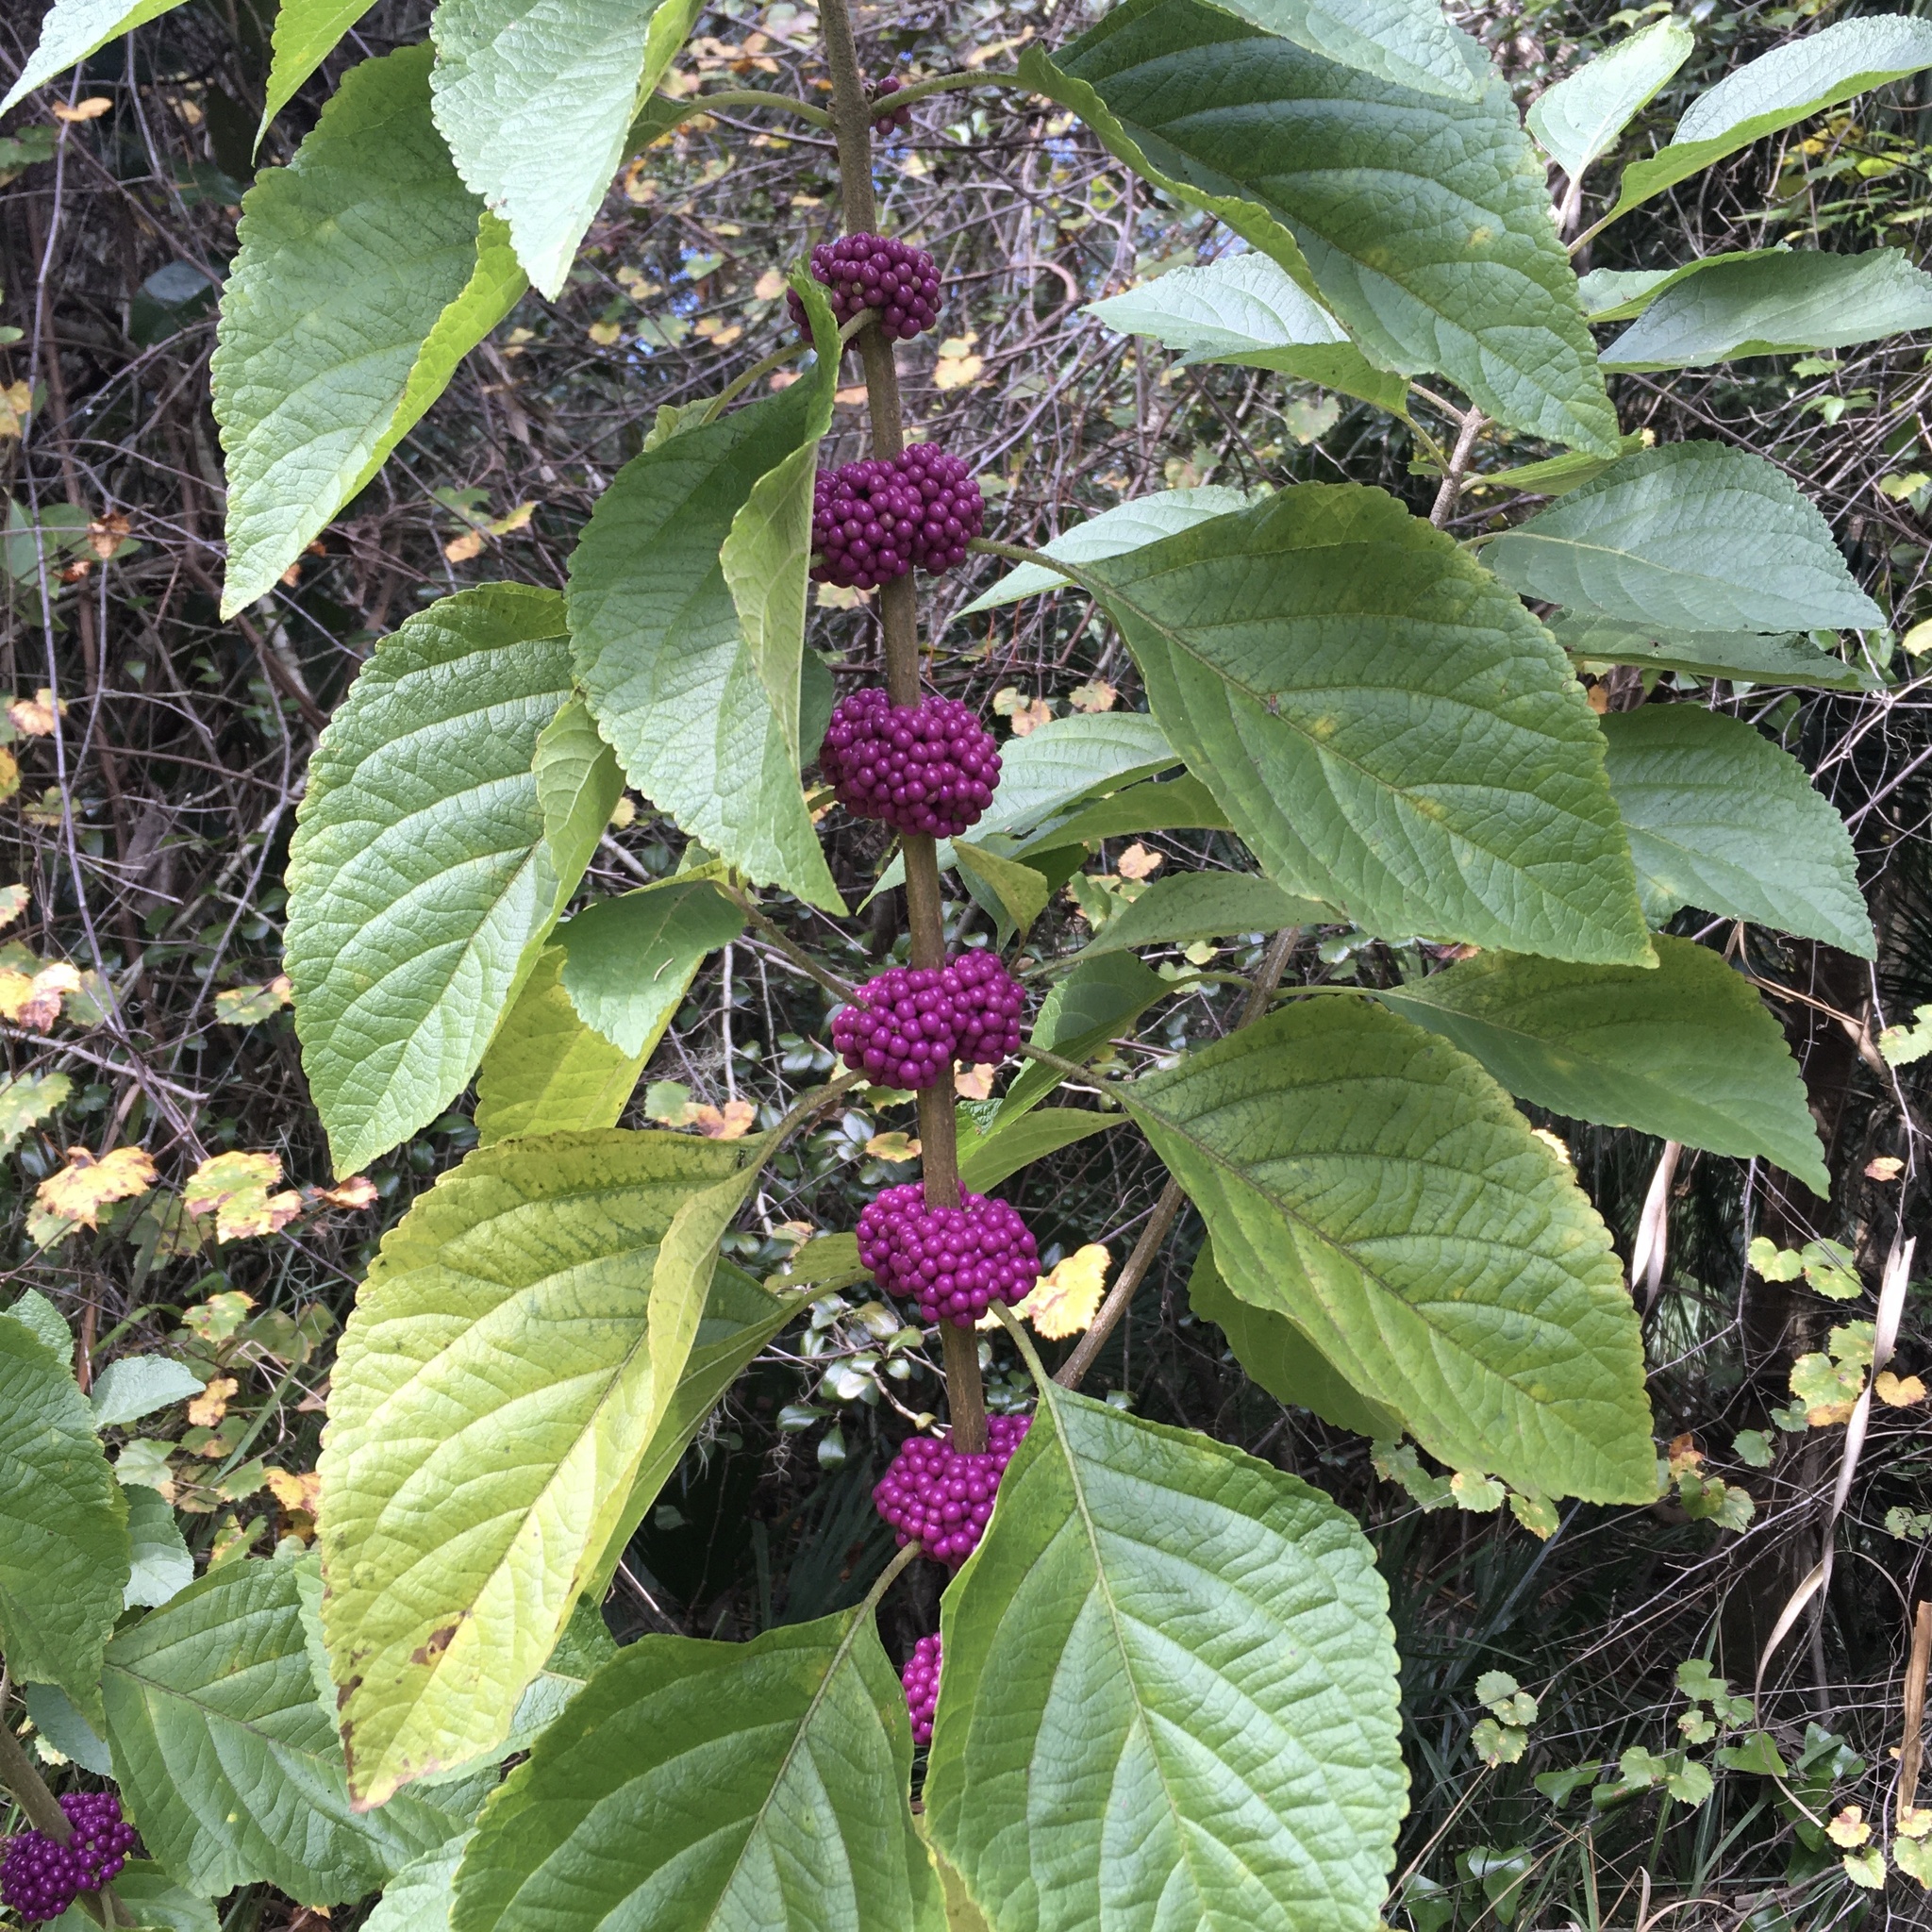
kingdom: Plantae
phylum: Tracheophyta
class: Magnoliopsida
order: Lamiales
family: Lamiaceae
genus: Callicarpa
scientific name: Callicarpa americana
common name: American beautyberry
